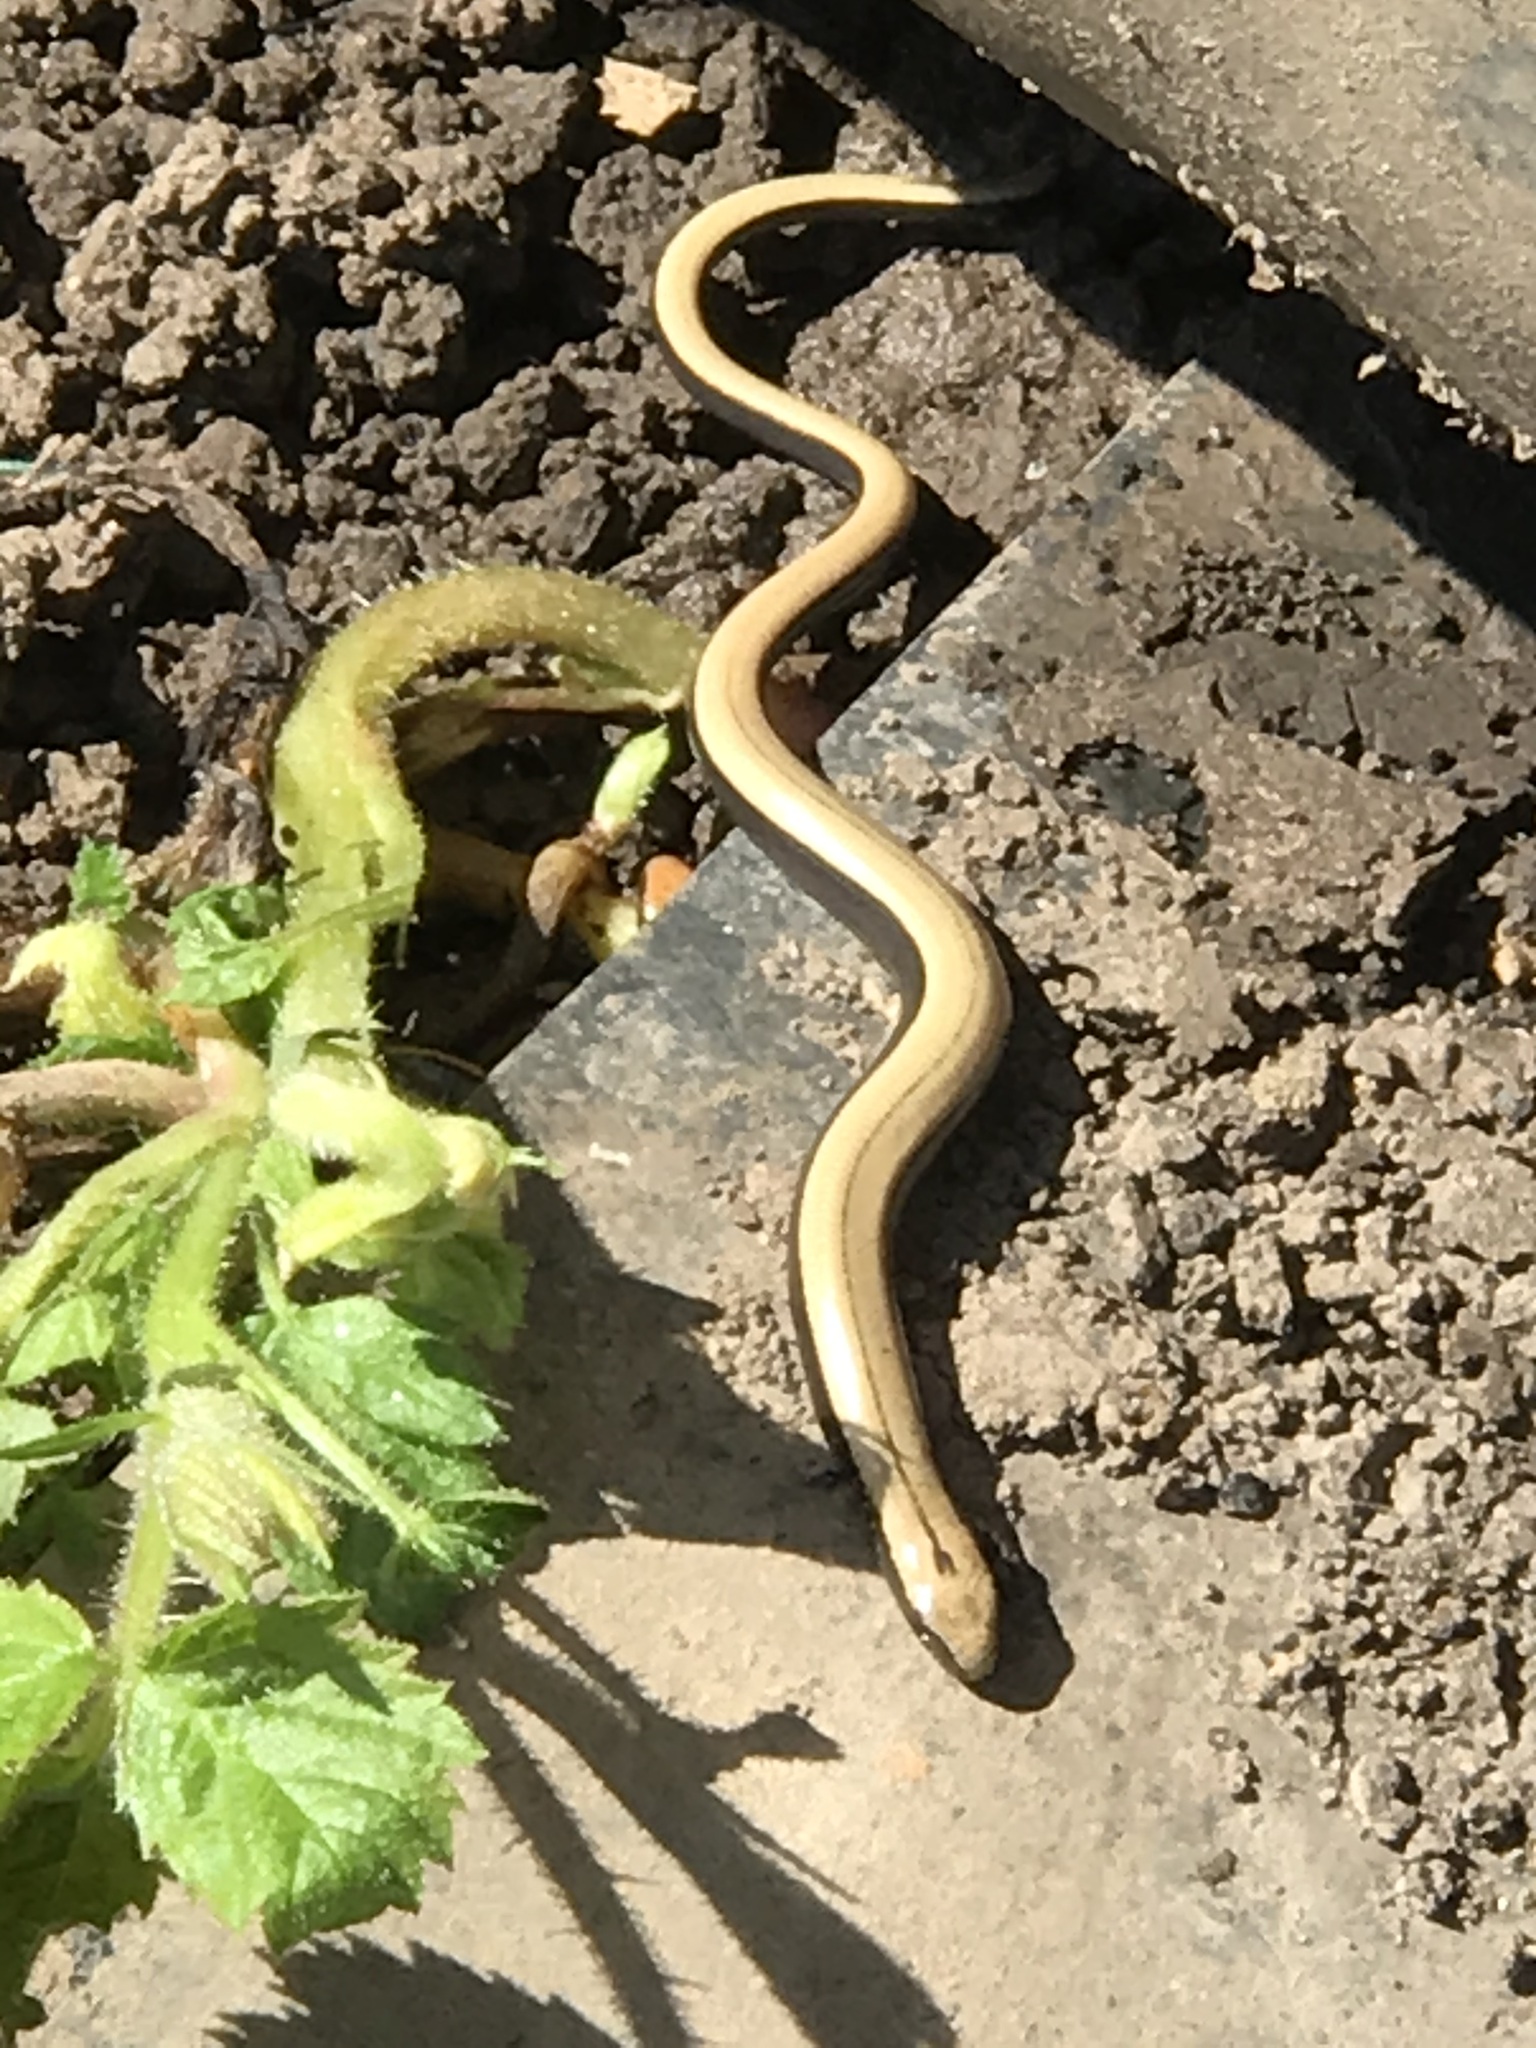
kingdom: Animalia
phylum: Chordata
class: Squamata
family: Anguidae
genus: Anguis
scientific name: Anguis fragilis
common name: Slow worm
